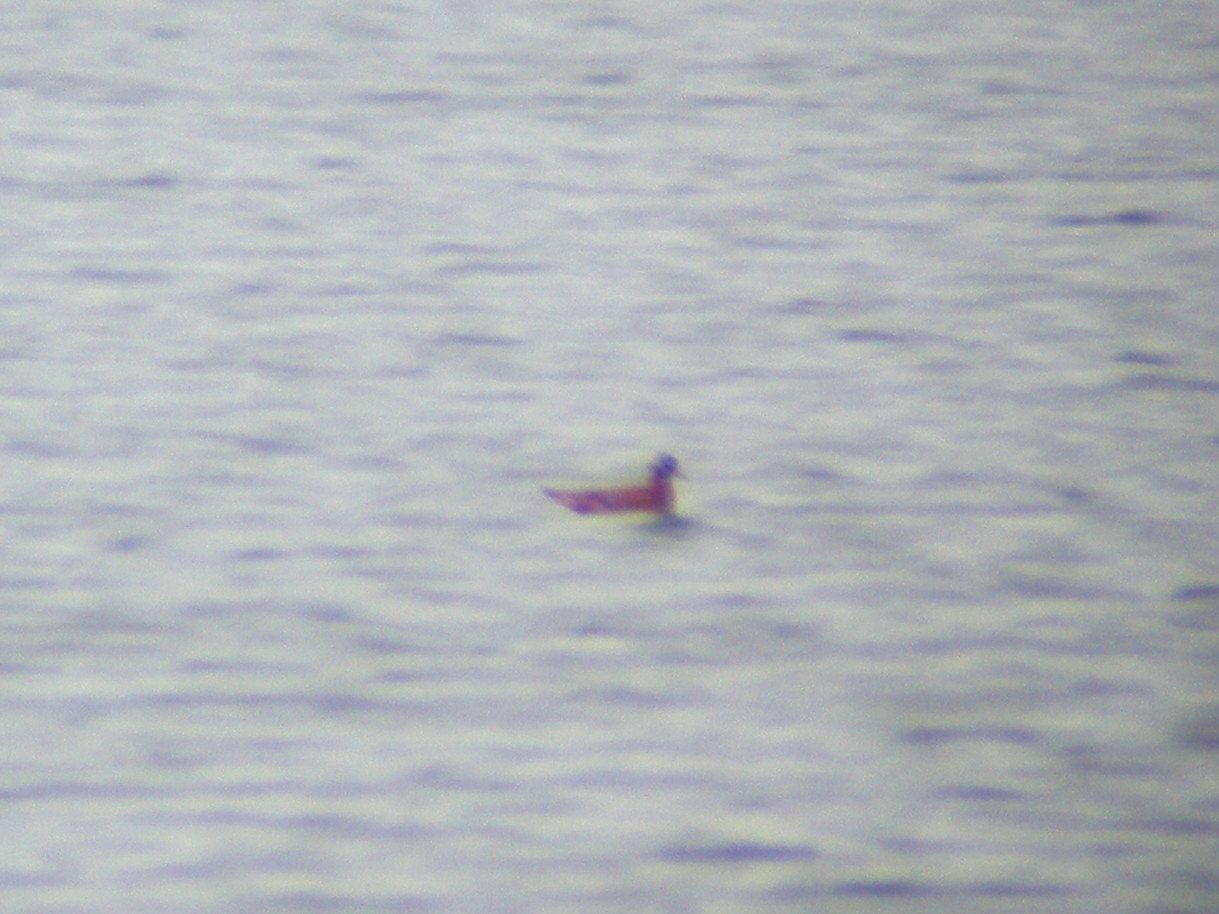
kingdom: Animalia
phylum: Chordata
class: Aves
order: Charadriiformes
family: Scolopacidae
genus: Phalaropus
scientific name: Phalaropus fulicarius
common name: Red phalarope
